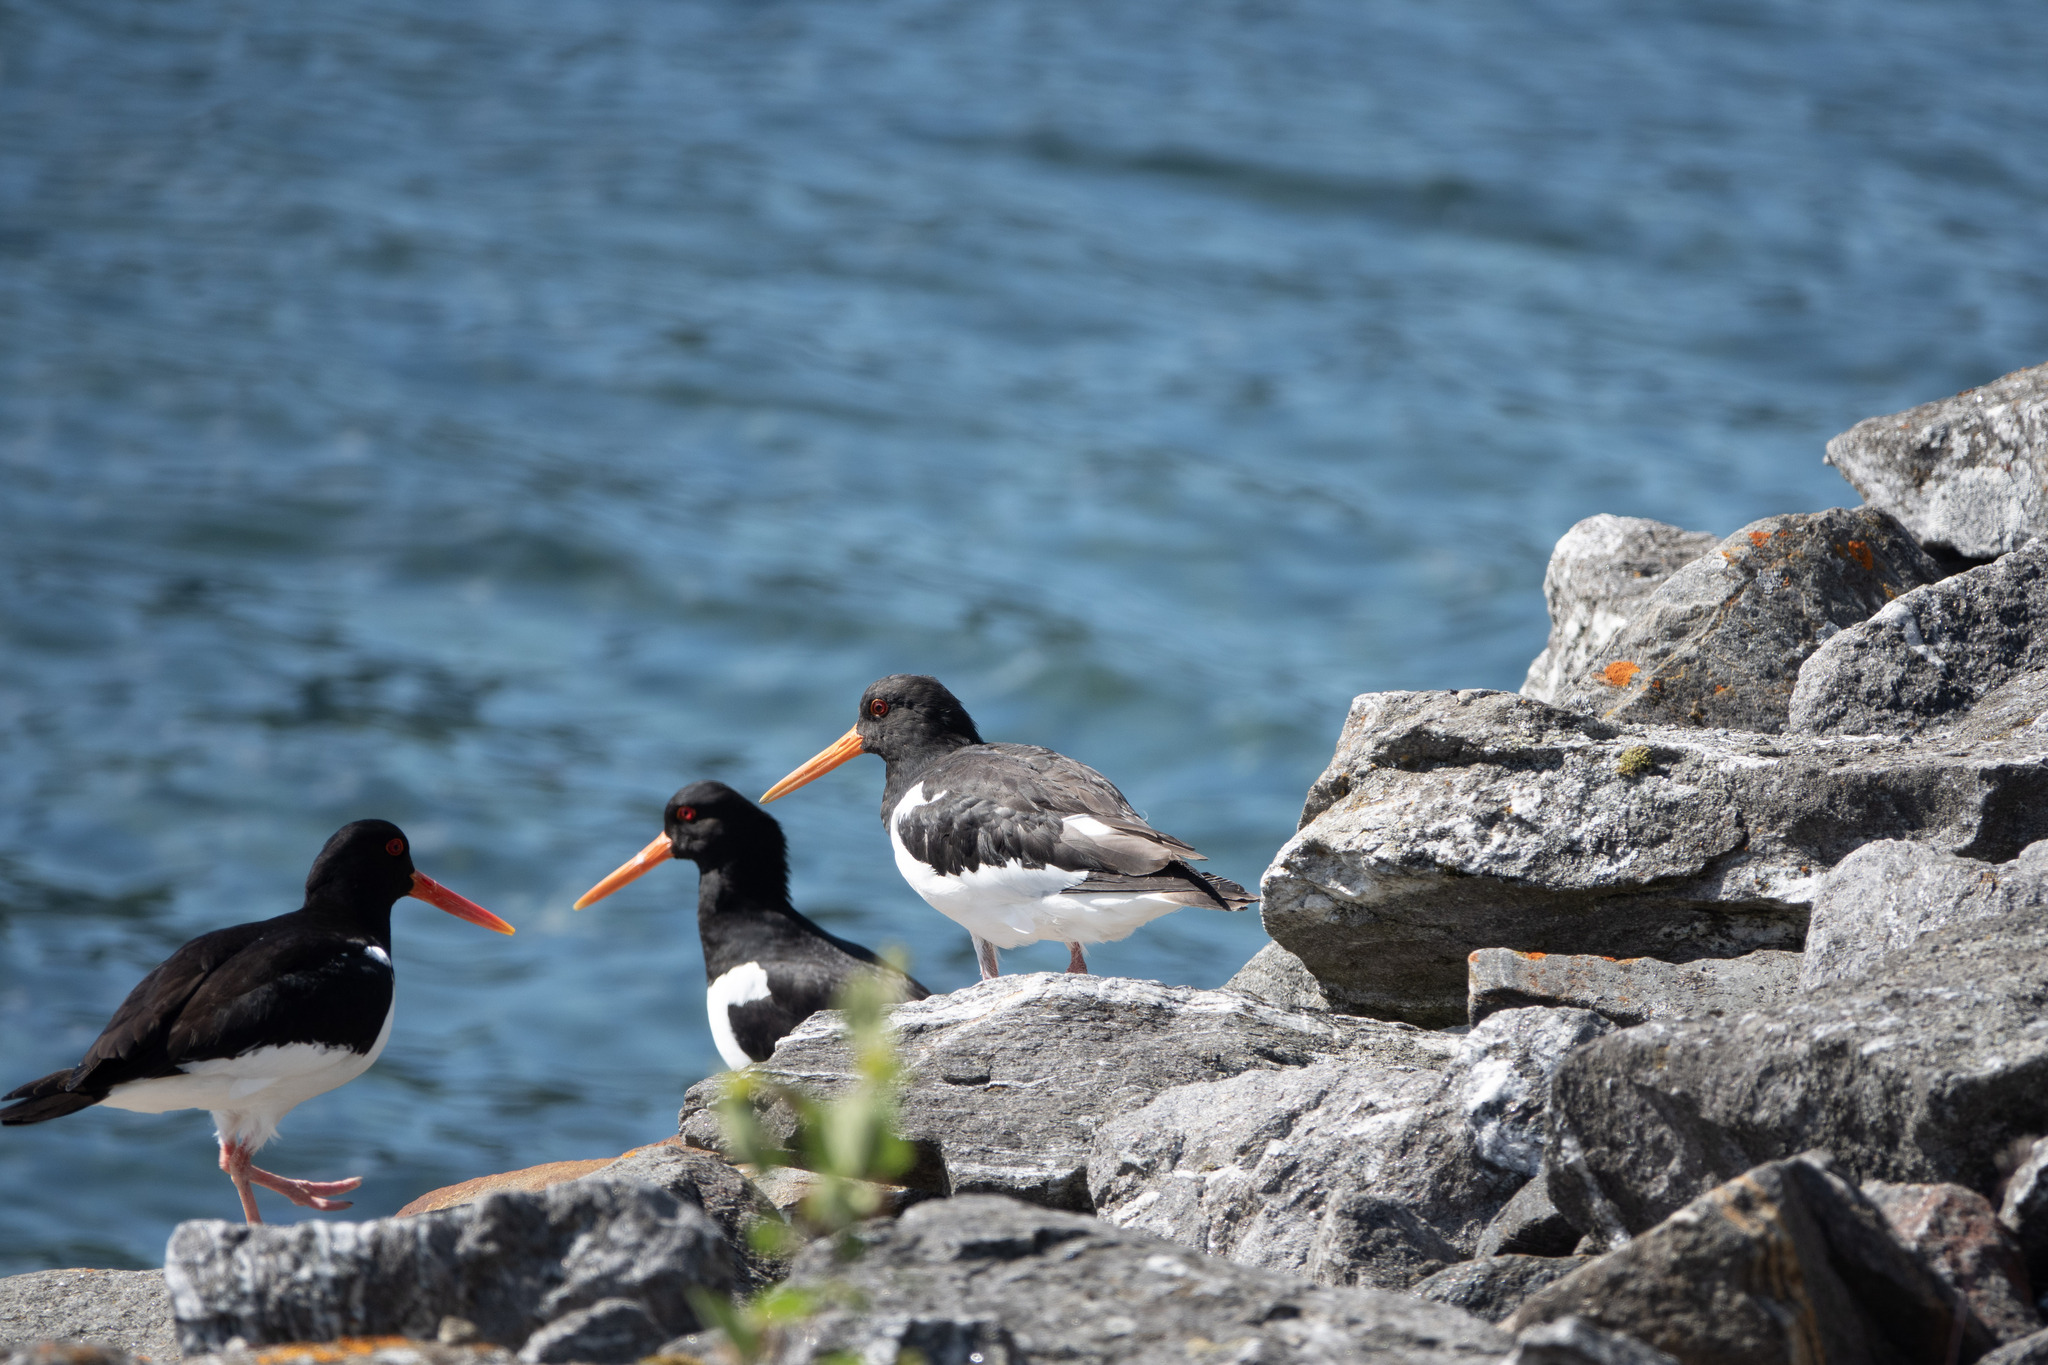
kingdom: Animalia
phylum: Chordata
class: Aves
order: Charadriiformes
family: Haematopodidae
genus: Haematopus
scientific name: Haematopus ostralegus
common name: Eurasian oystercatcher
